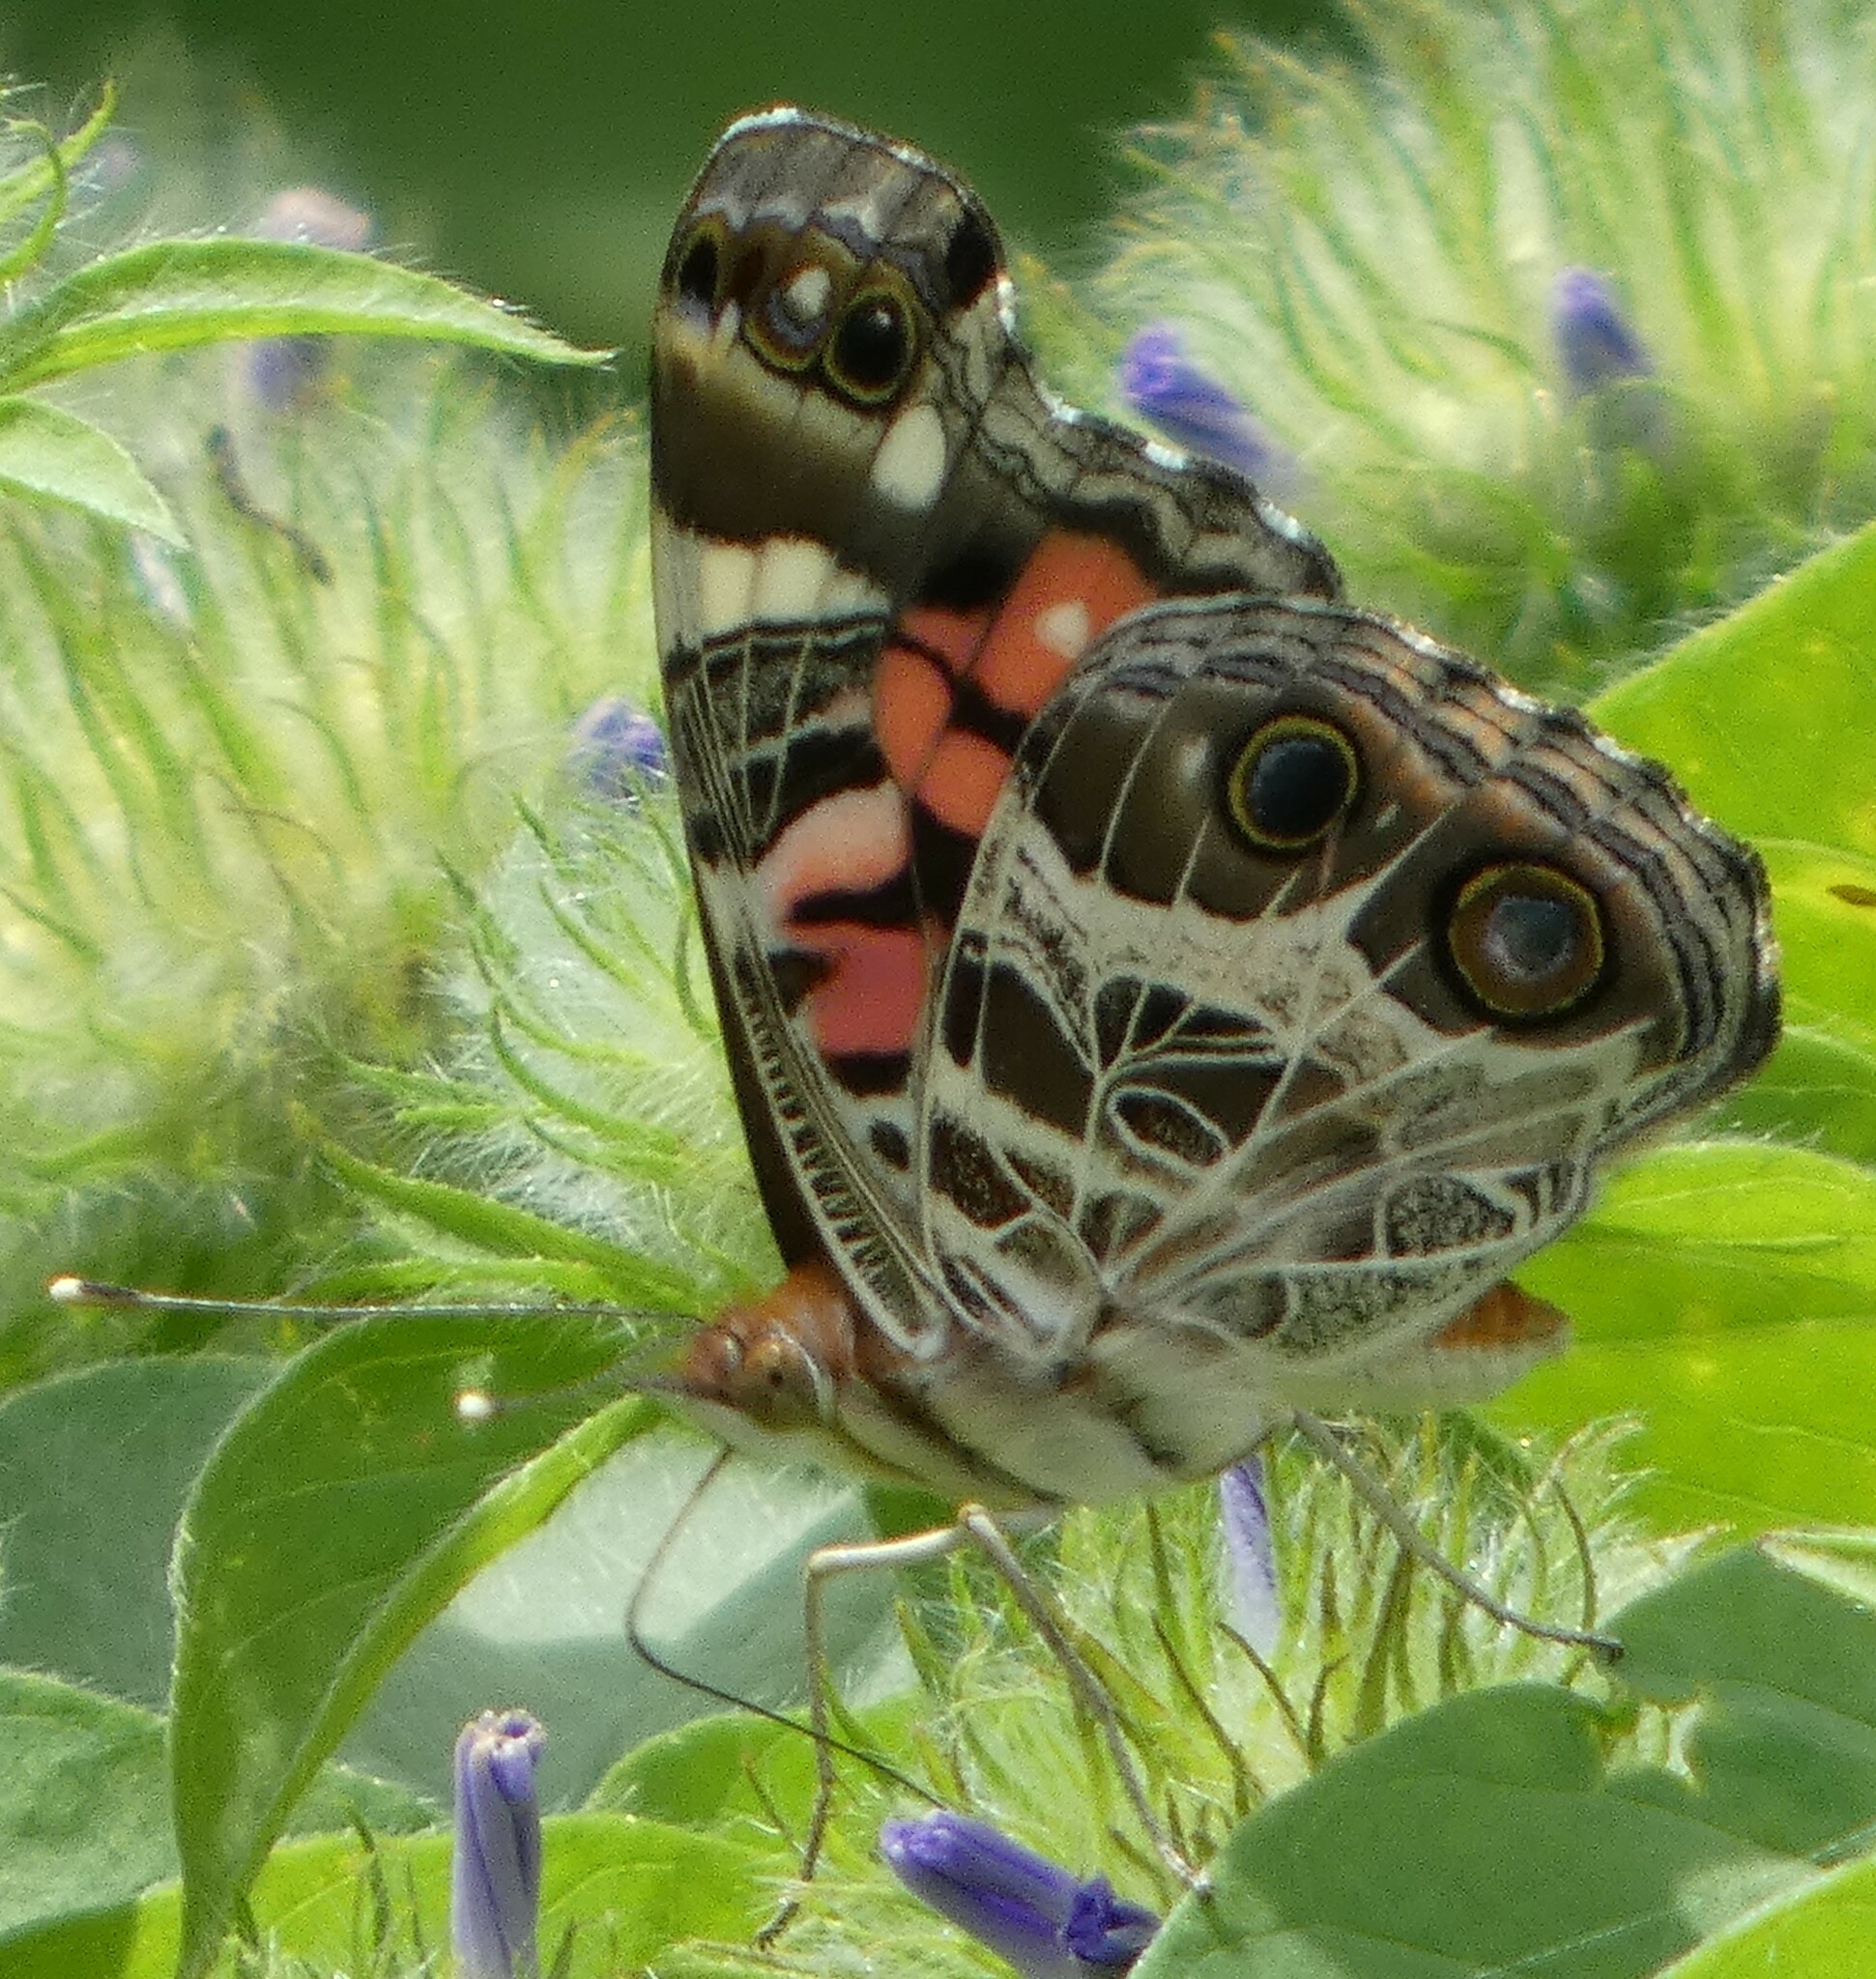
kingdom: Animalia
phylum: Arthropoda
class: Insecta
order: Lepidoptera
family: Nymphalidae
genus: Vanessa
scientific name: Vanessa virginiensis
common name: American lady
